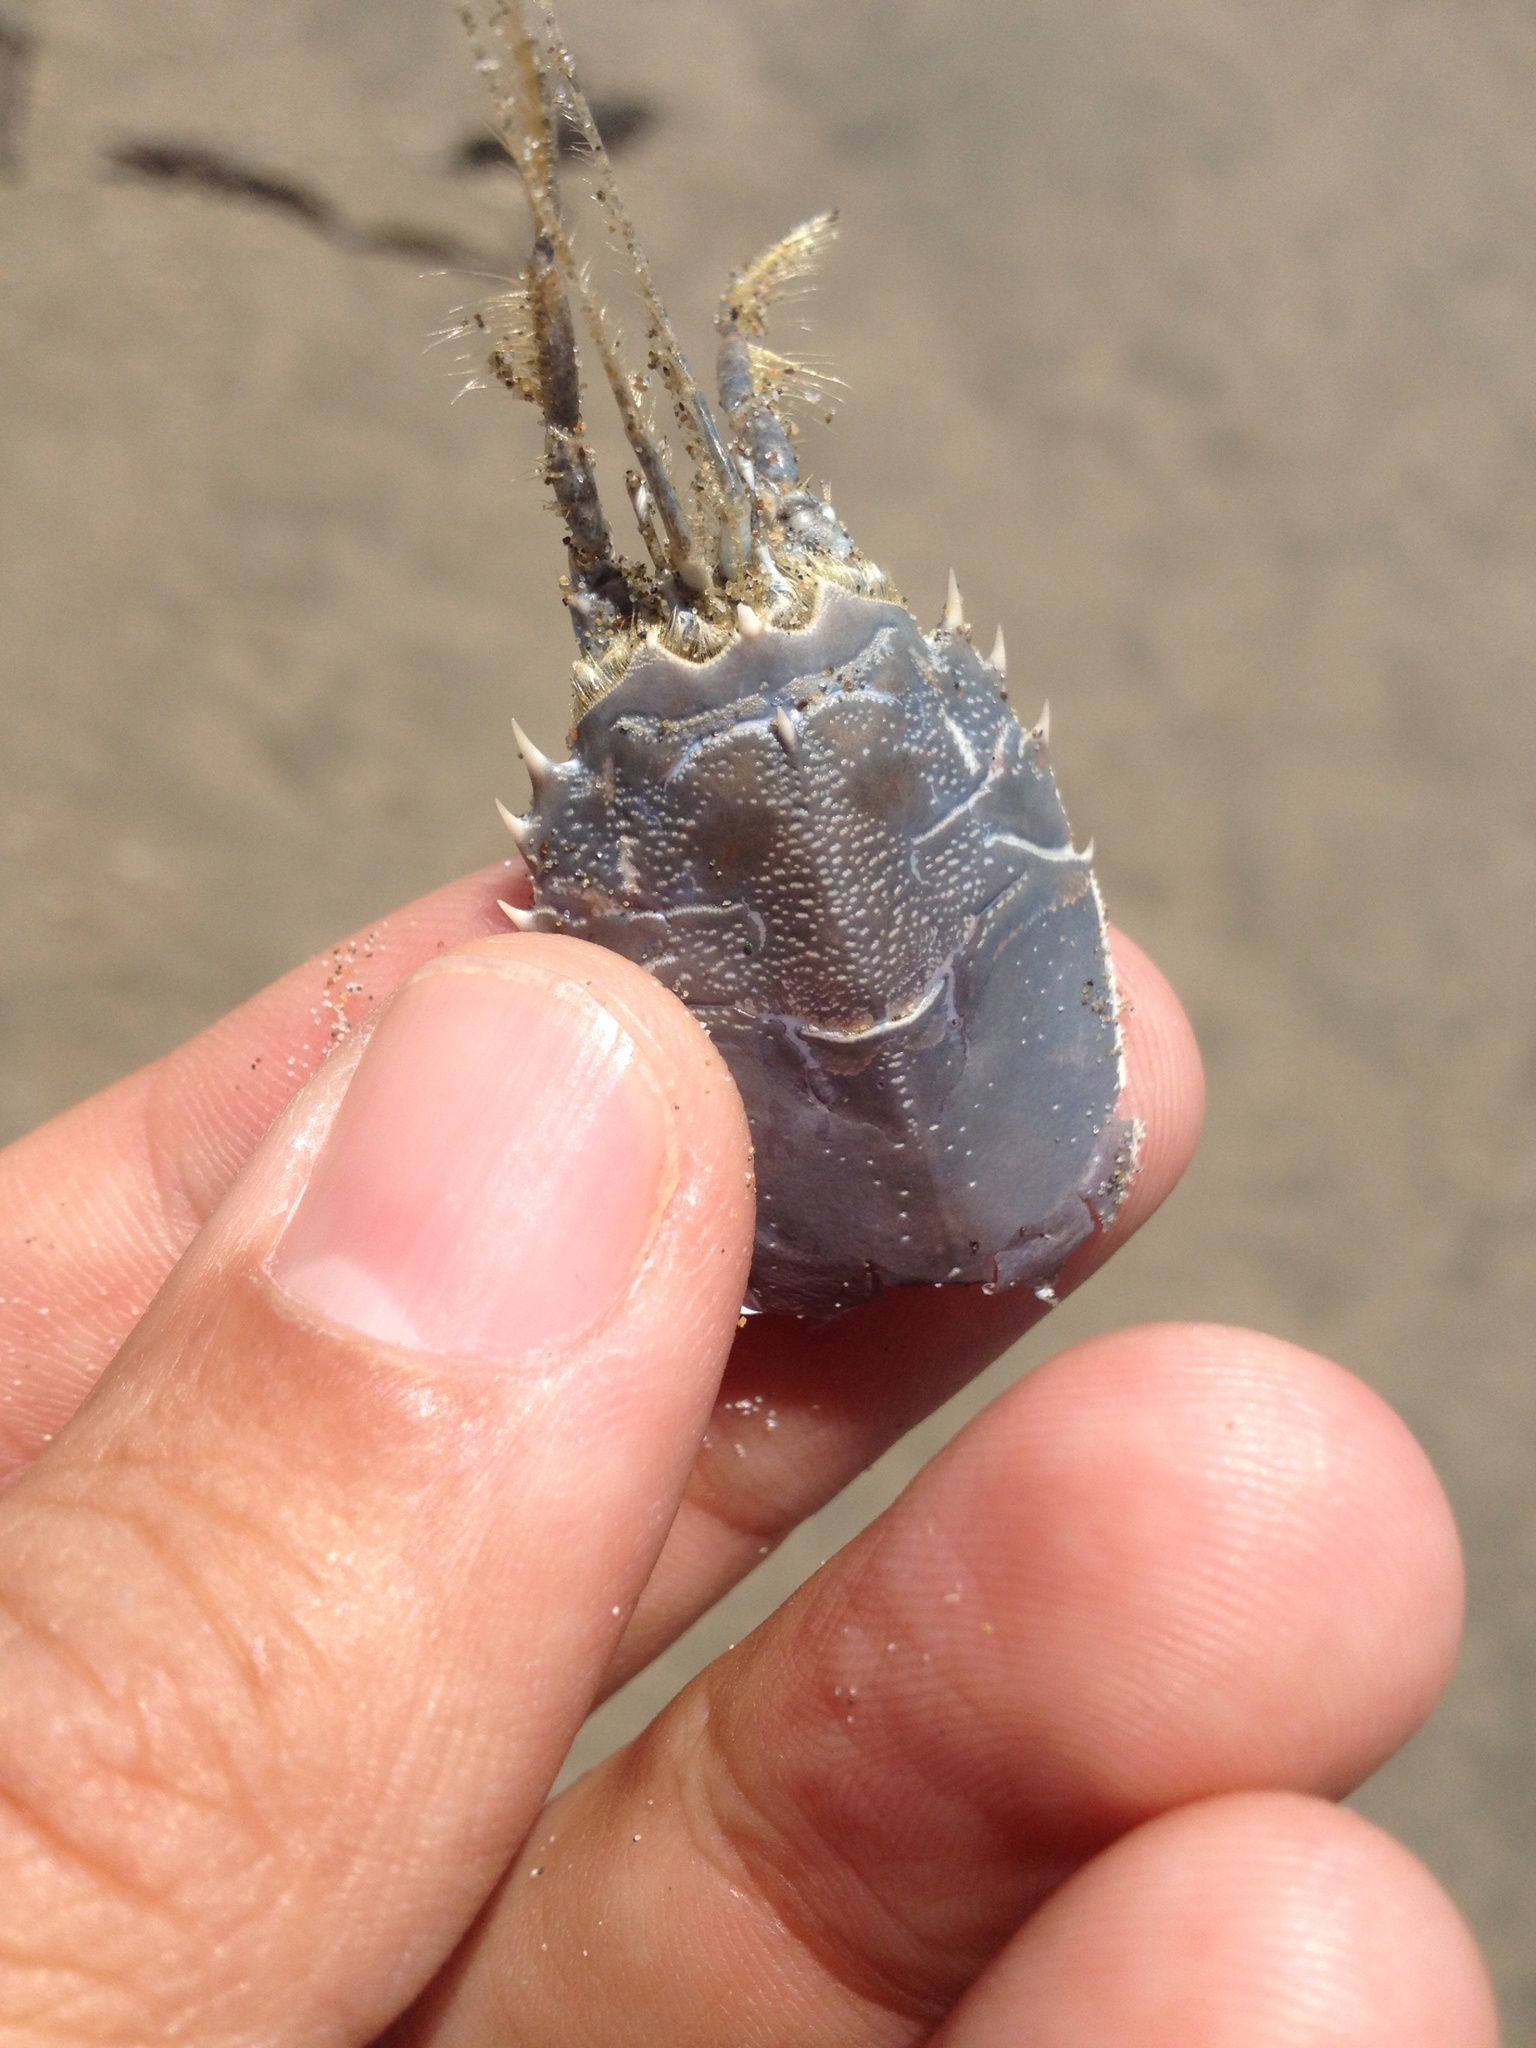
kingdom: Animalia
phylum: Arthropoda
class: Malacostraca
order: Decapoda
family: Blepharipodidae
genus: Blepharipoda
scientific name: Blepharipoda occidentalis
